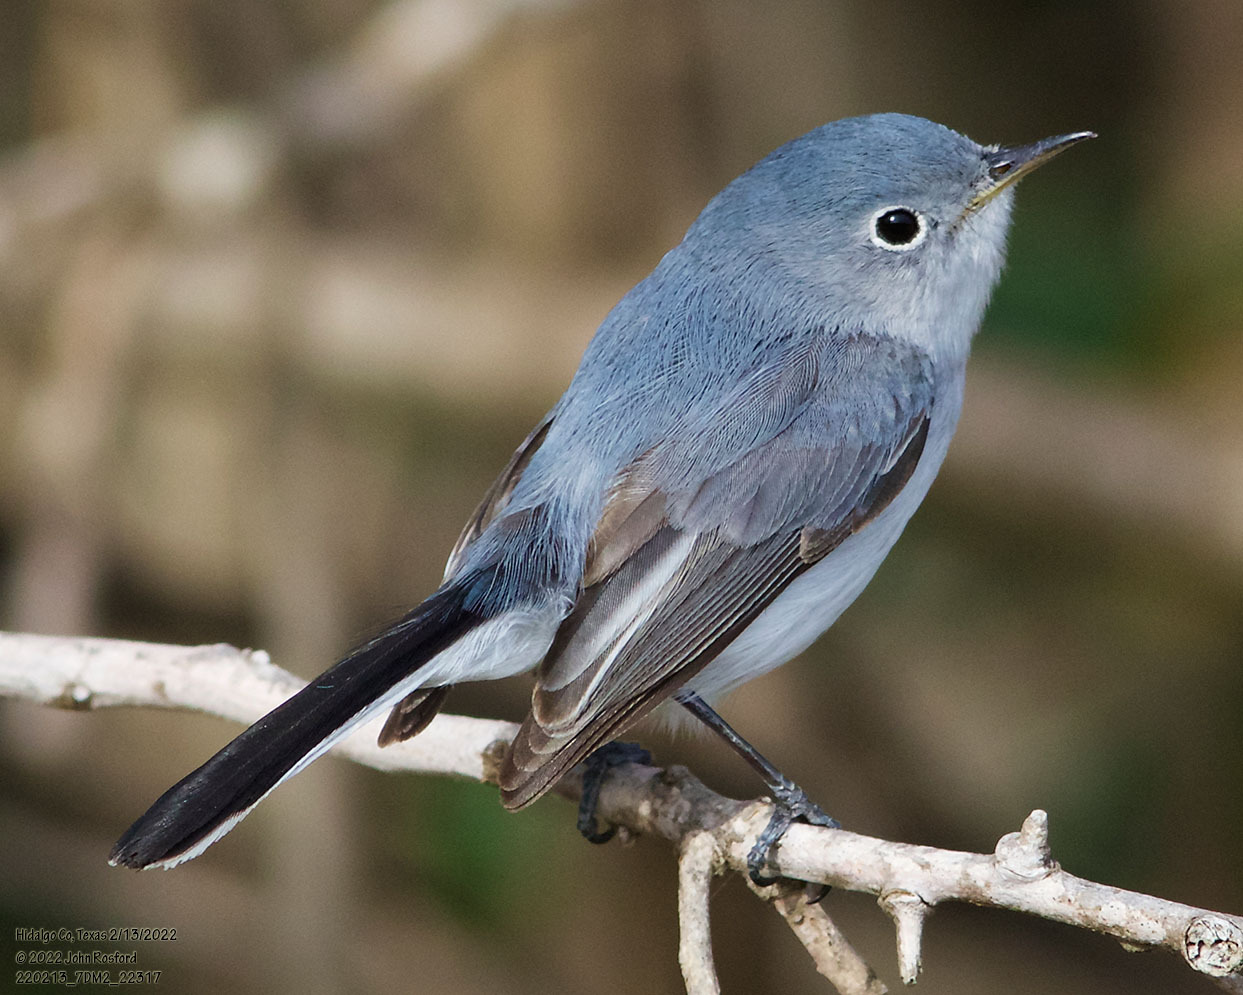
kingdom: Animalia
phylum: Chordata
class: Aves
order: Passeriformes
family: Polioptilidae
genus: Polioptila
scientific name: Polioptila caerulea
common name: Blue-gray gnatcatcher
